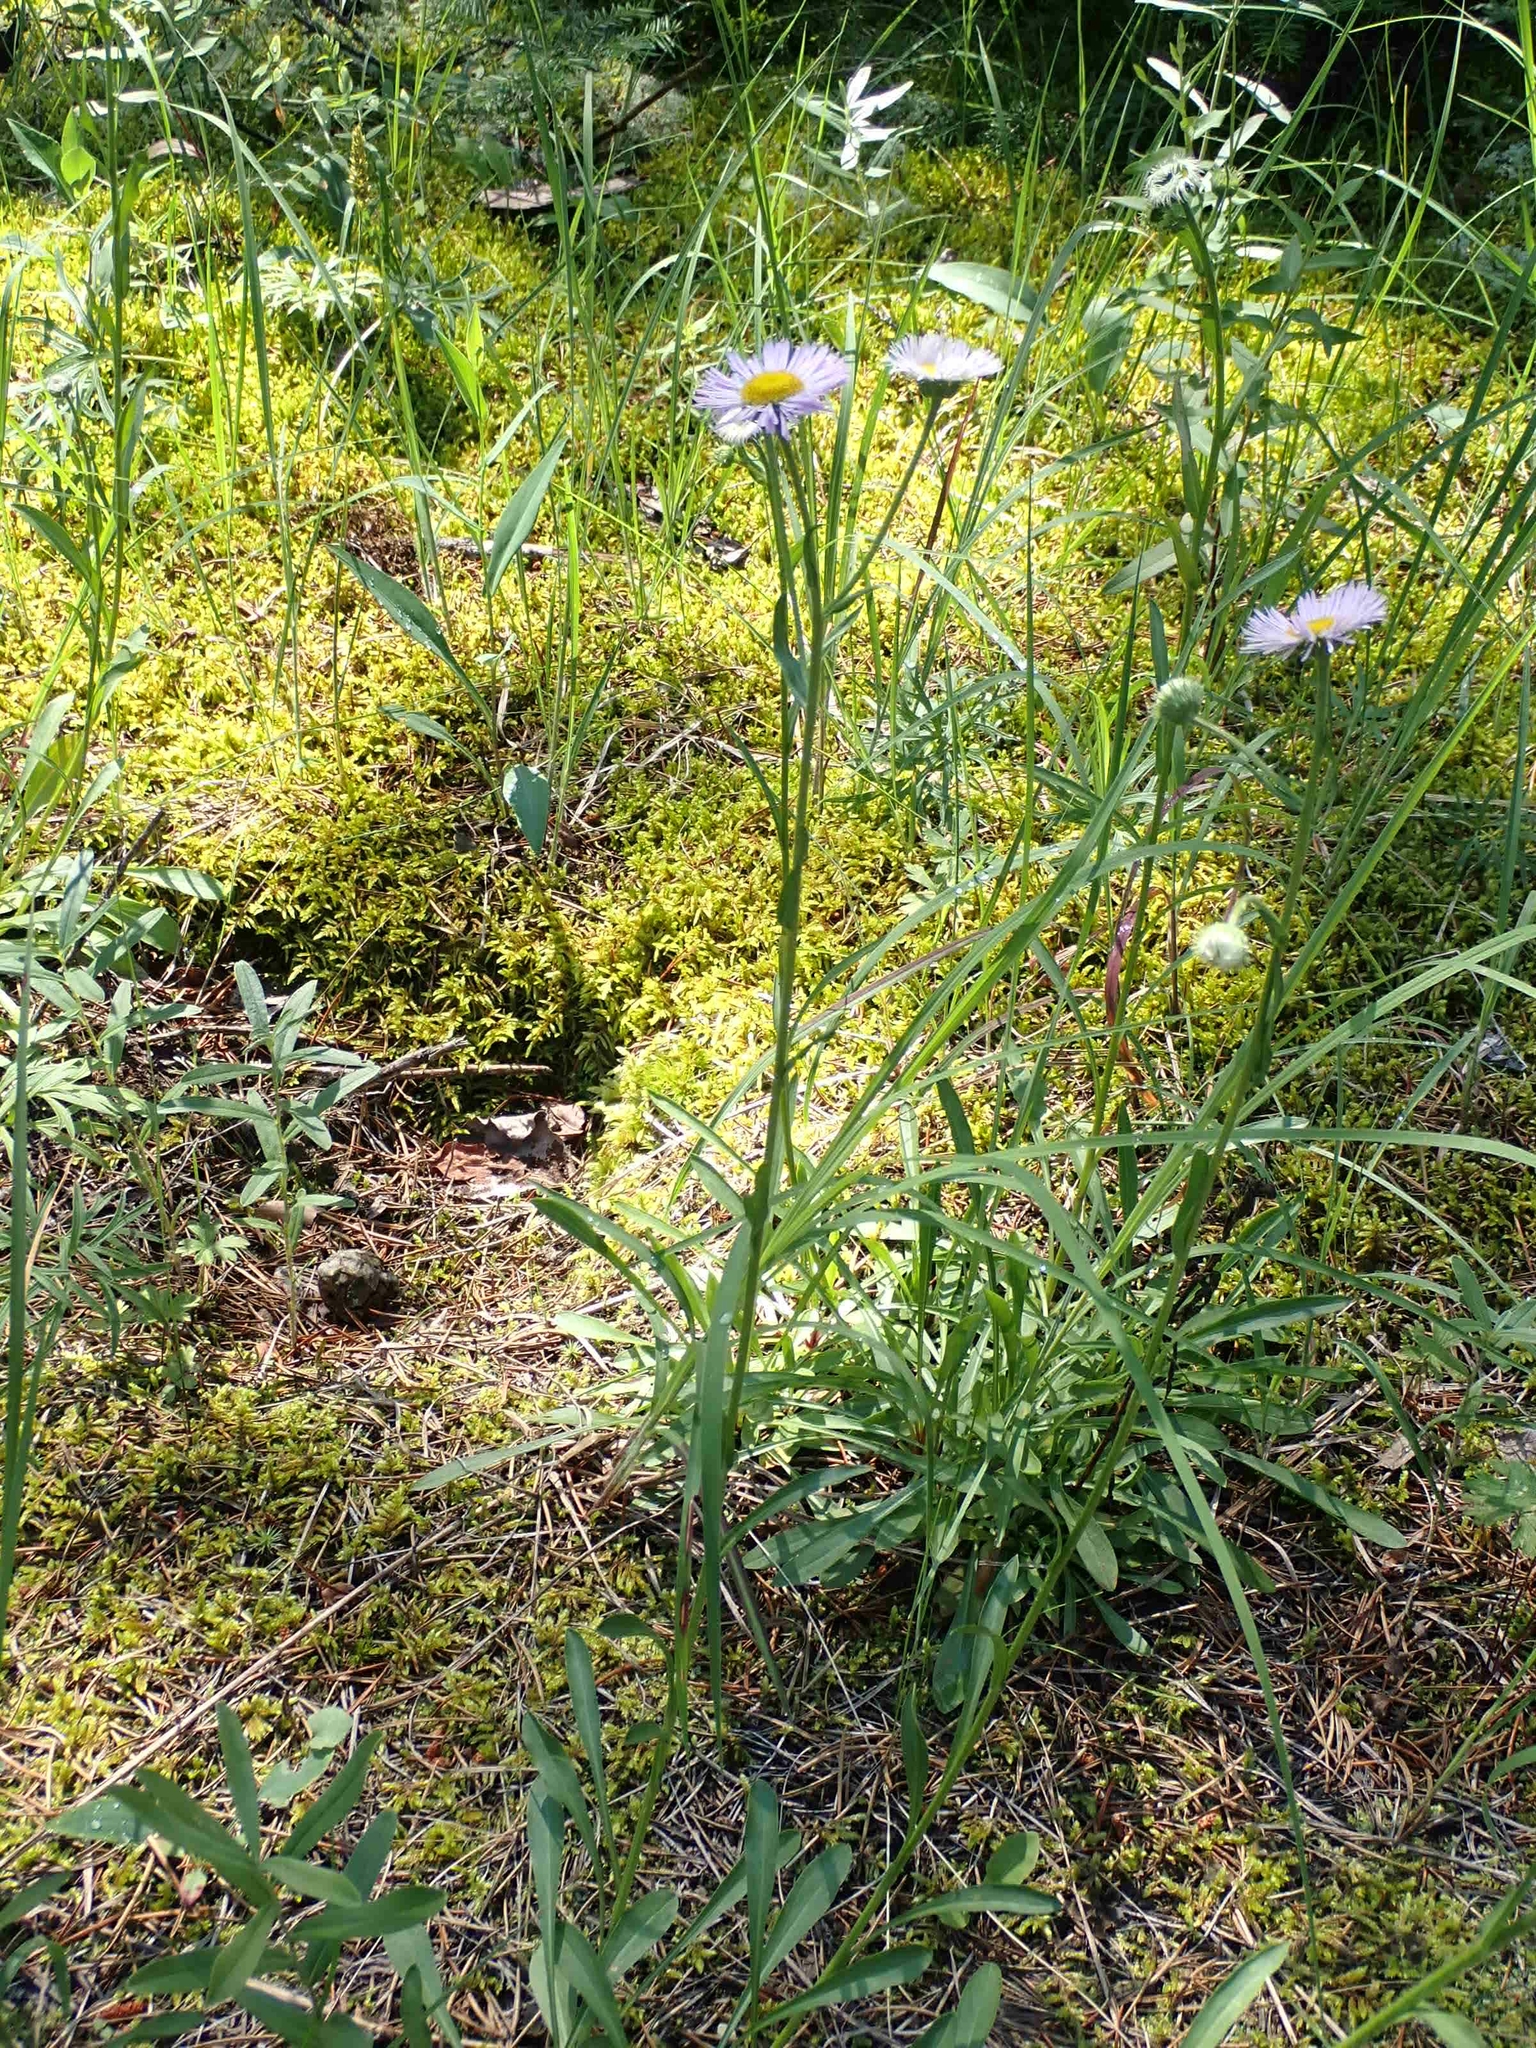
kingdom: Plantae
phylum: Tracheophyta
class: Magnoliopsida
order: Asterales
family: Asteraceae
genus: Erigeron
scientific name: Erigeron strigosus
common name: Common eastern fleabane
